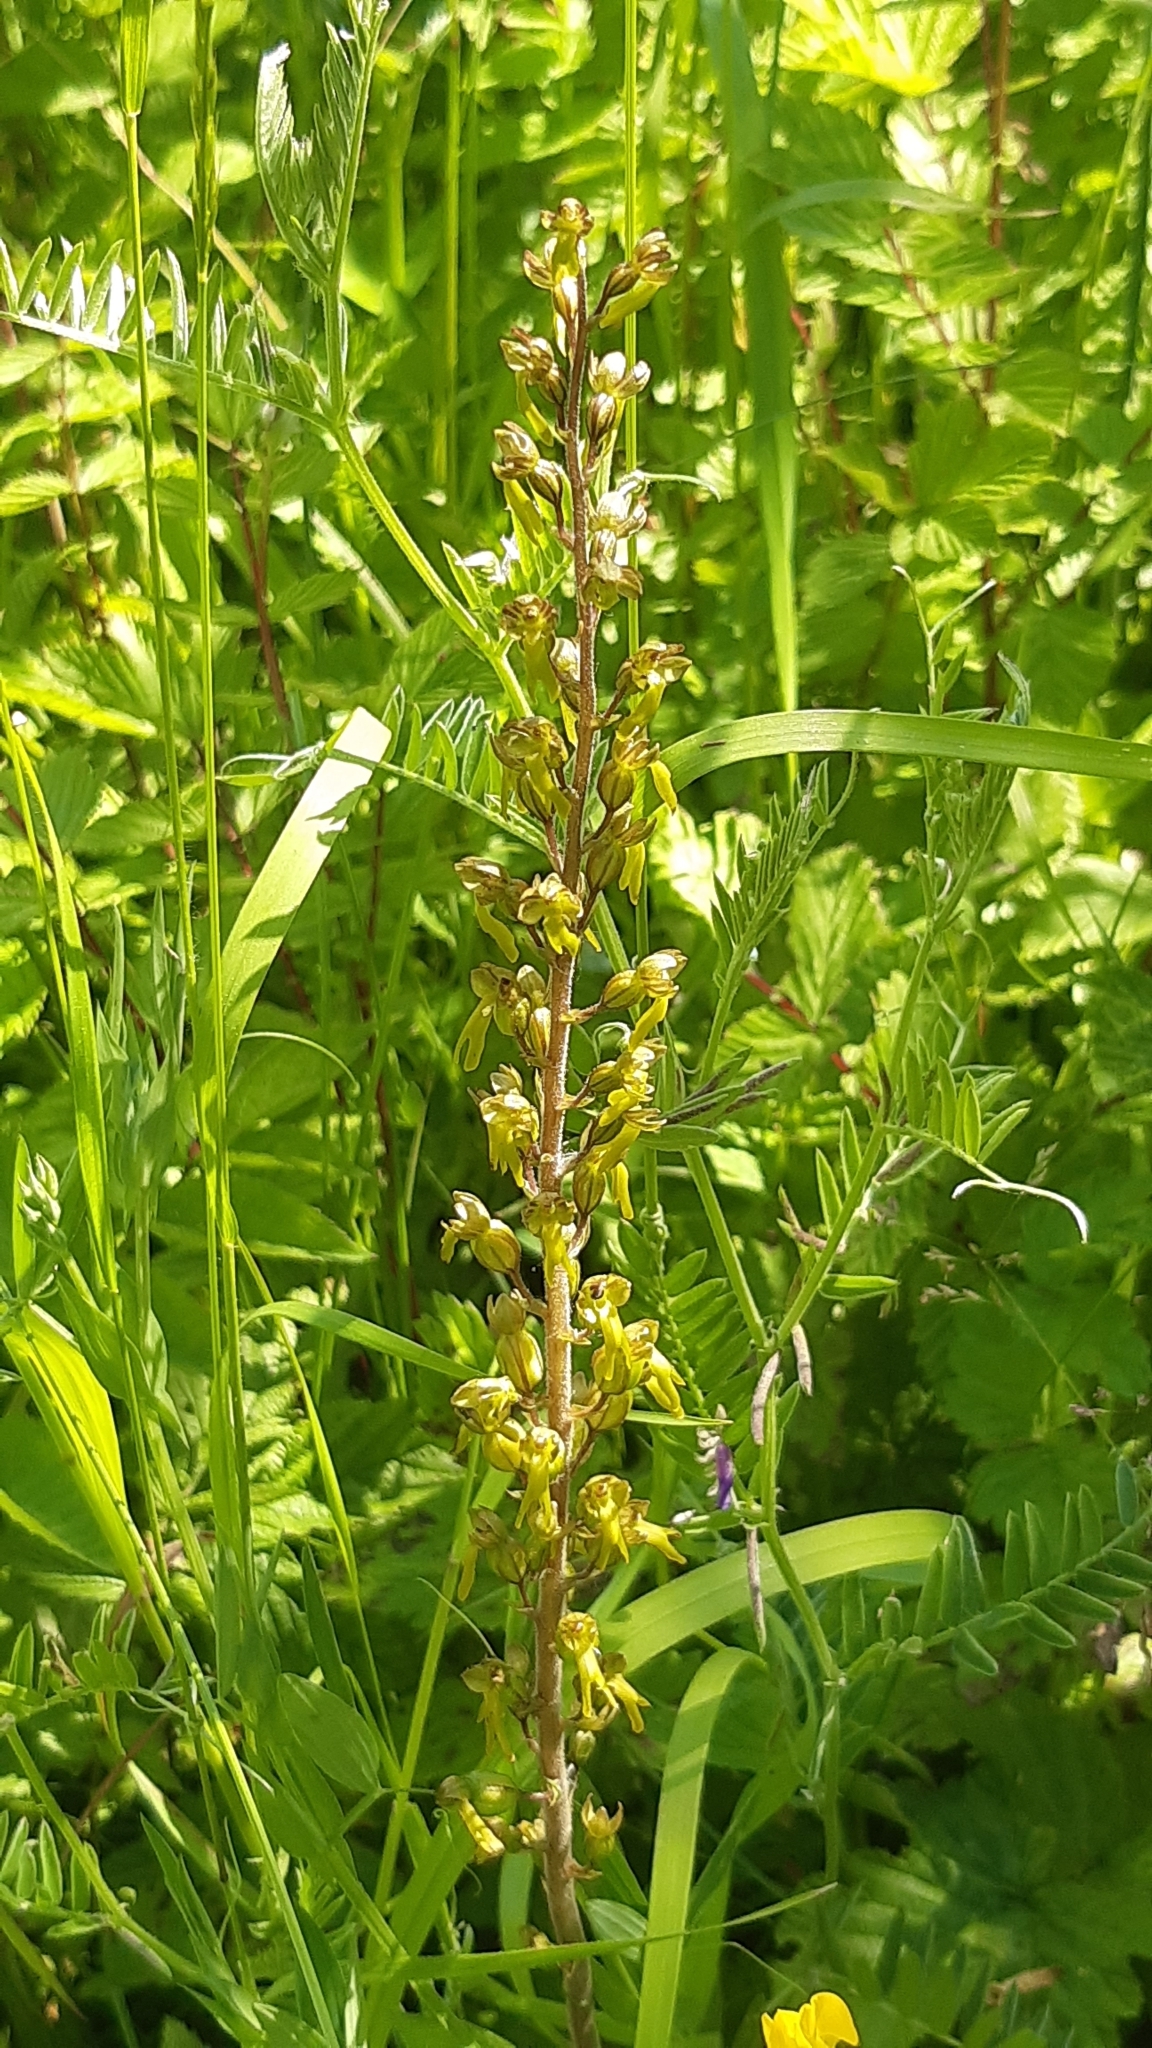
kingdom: Plantae
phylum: Tracheophyta
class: Liliopsida
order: Asparagales
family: Orchidaceae
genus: Neottia
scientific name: Neottia ovata
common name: Common twayblade
